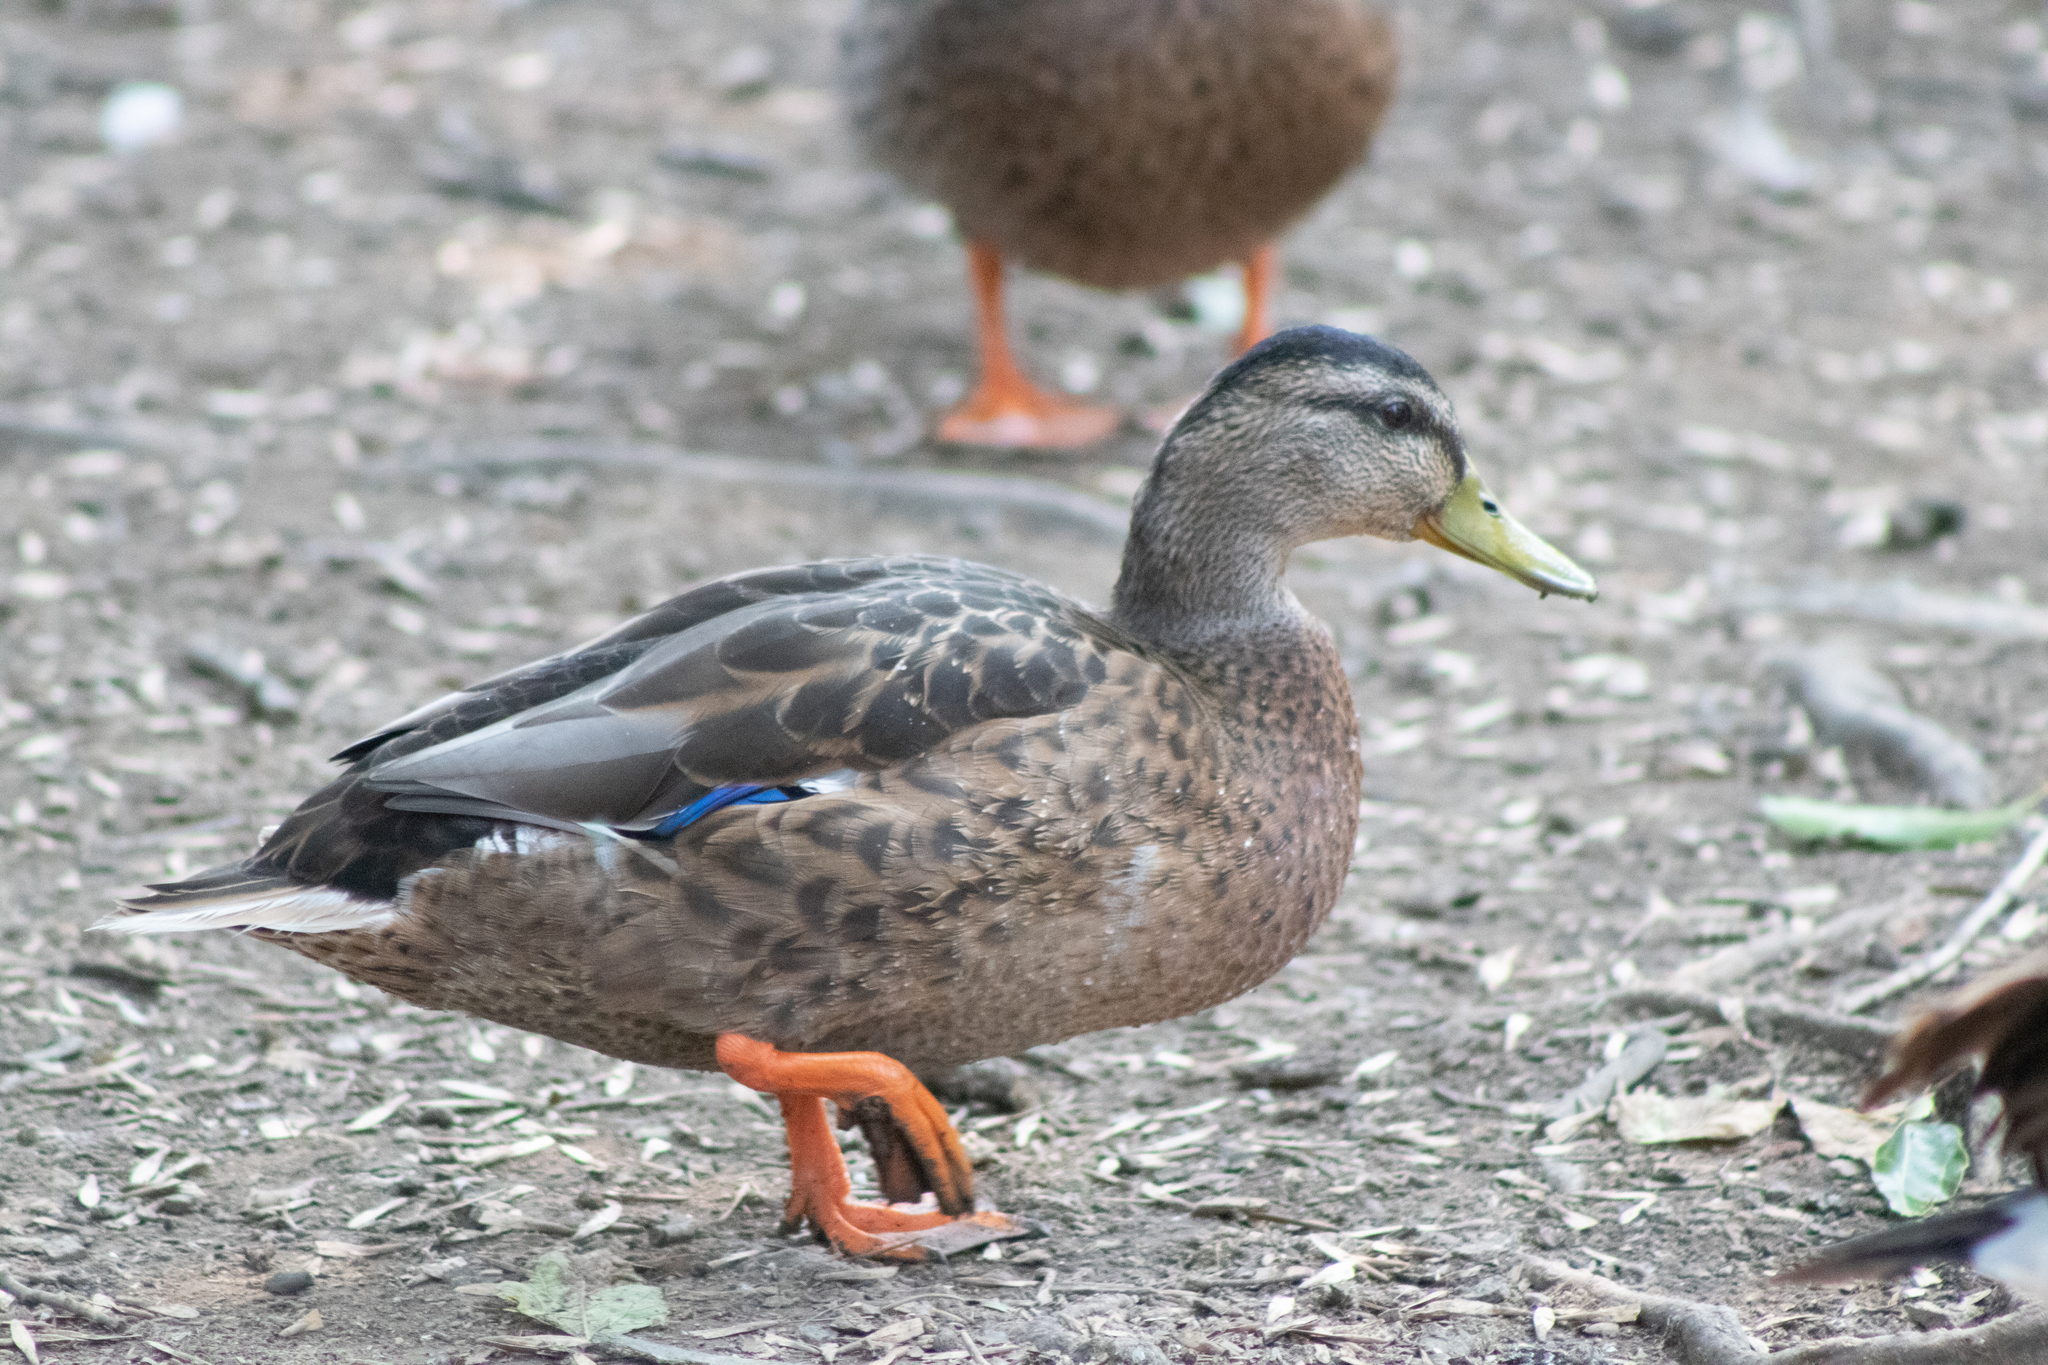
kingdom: Animalia
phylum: Chordata
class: Aves
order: Anseriformes
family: Anatidae
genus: Anas
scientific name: Anas platyrhynchos
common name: Mallard
